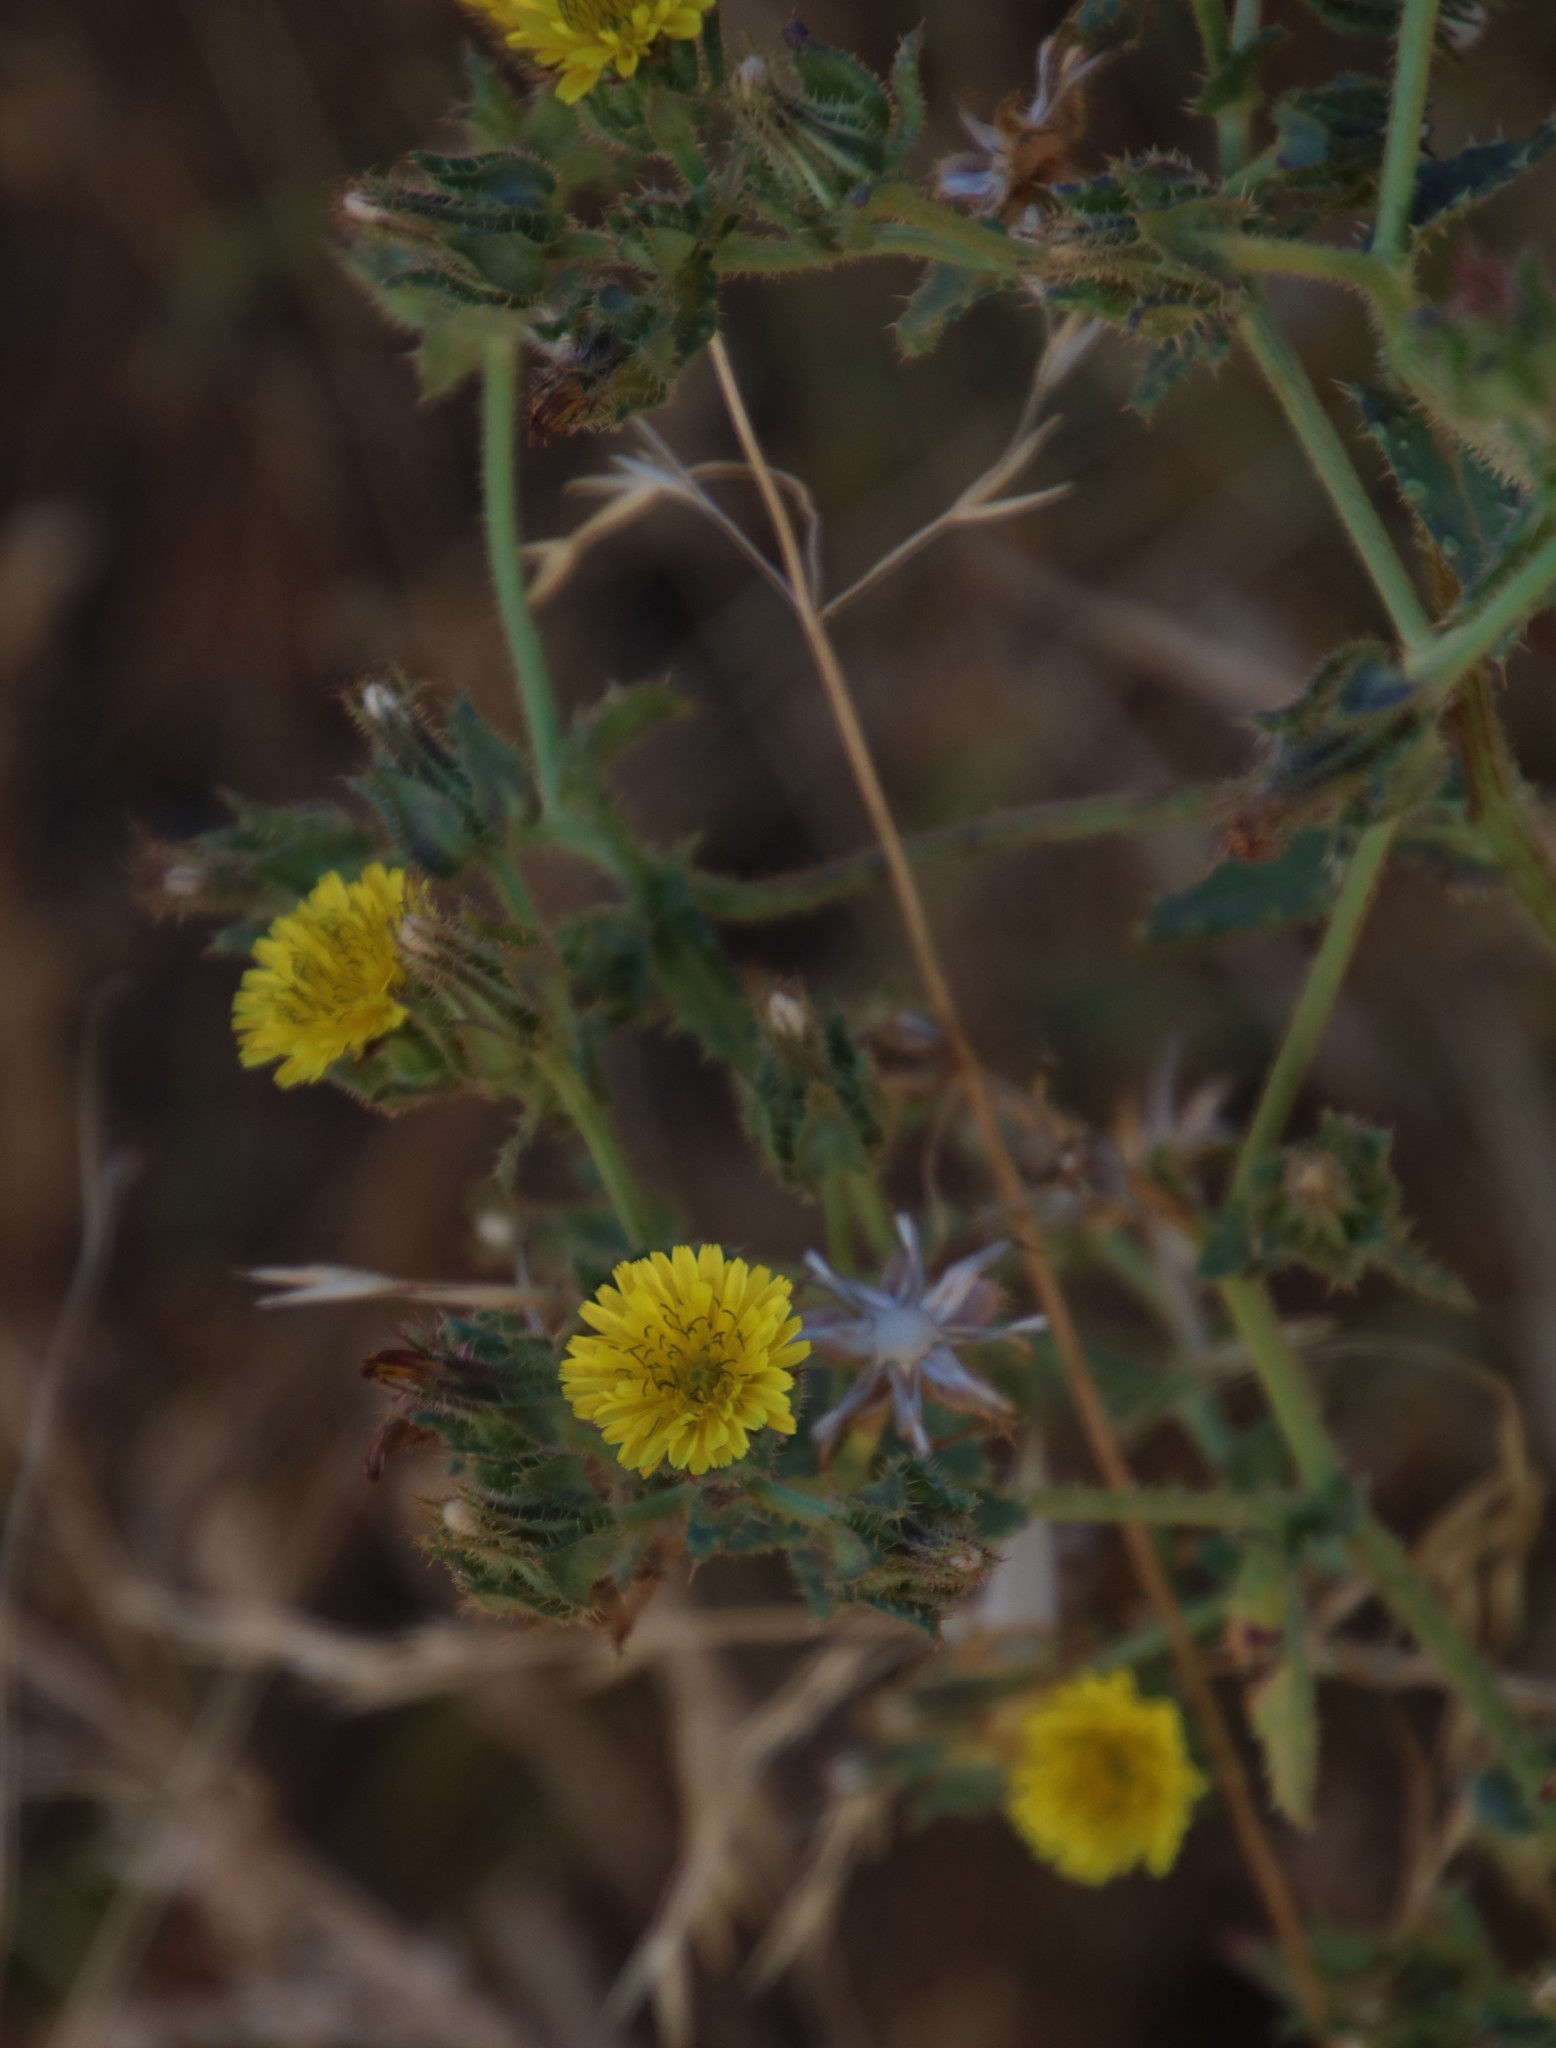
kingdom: Plantae
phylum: Tracheophyta
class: Magnoliopsida
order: Asterales
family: Asteraceae
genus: Helminthotheca
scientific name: Helminthotheca echioides
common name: Ox-tongue
